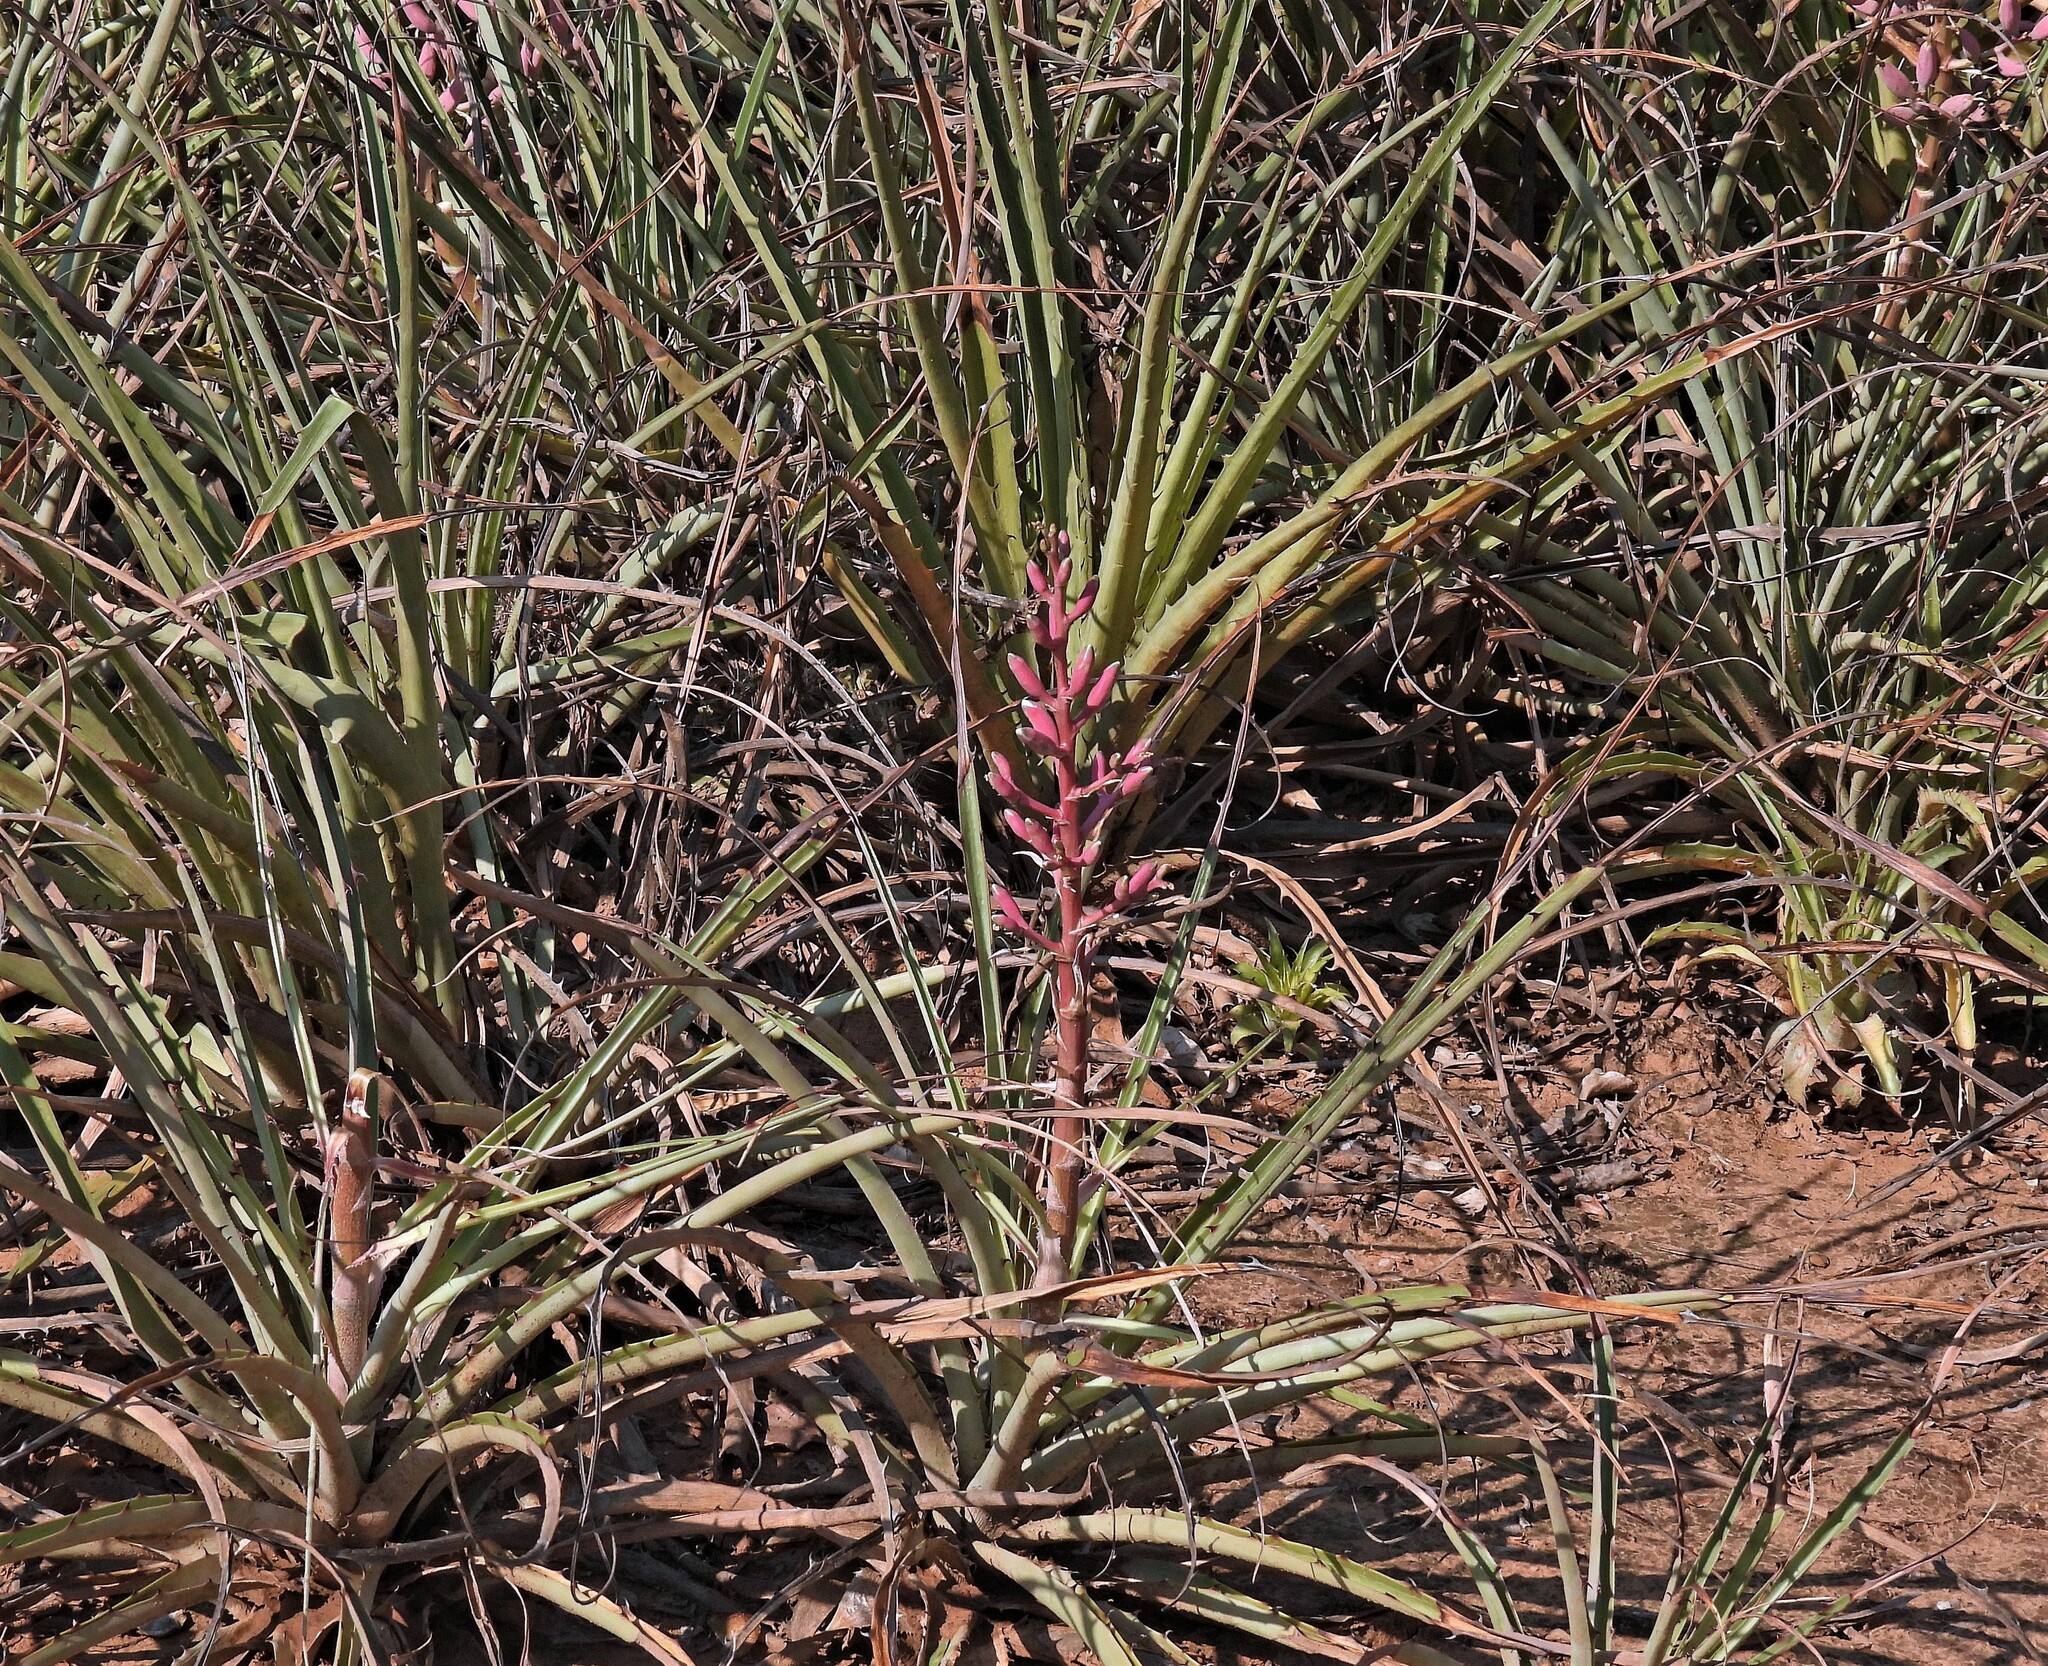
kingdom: Plantae
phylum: Tracheophyta
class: Liliopsida
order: Poales
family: Bromeliaceae
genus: Bromelia
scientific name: Bromelia hieronymi
